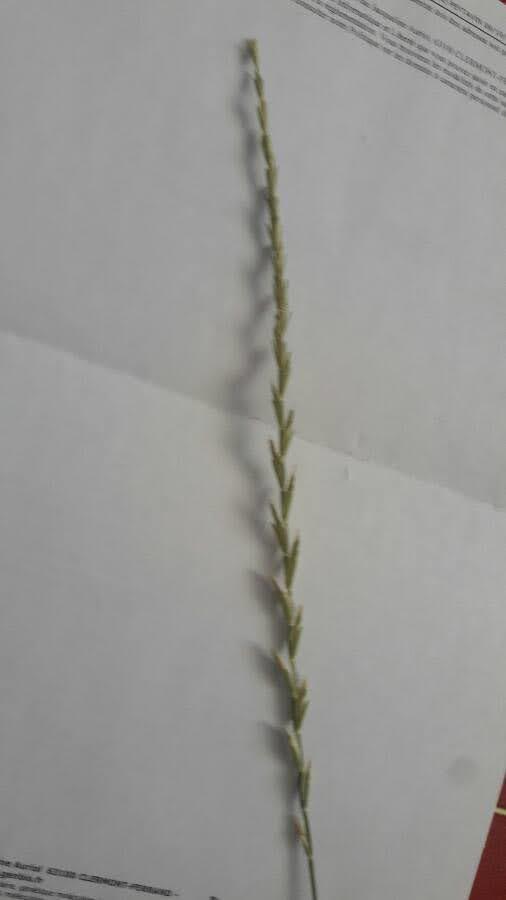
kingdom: Plantae
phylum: Tracheophyta
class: Liliopsida
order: Poales
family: Poaceae
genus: Lolium
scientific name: Lolium perenne
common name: Perennial ryegrass
